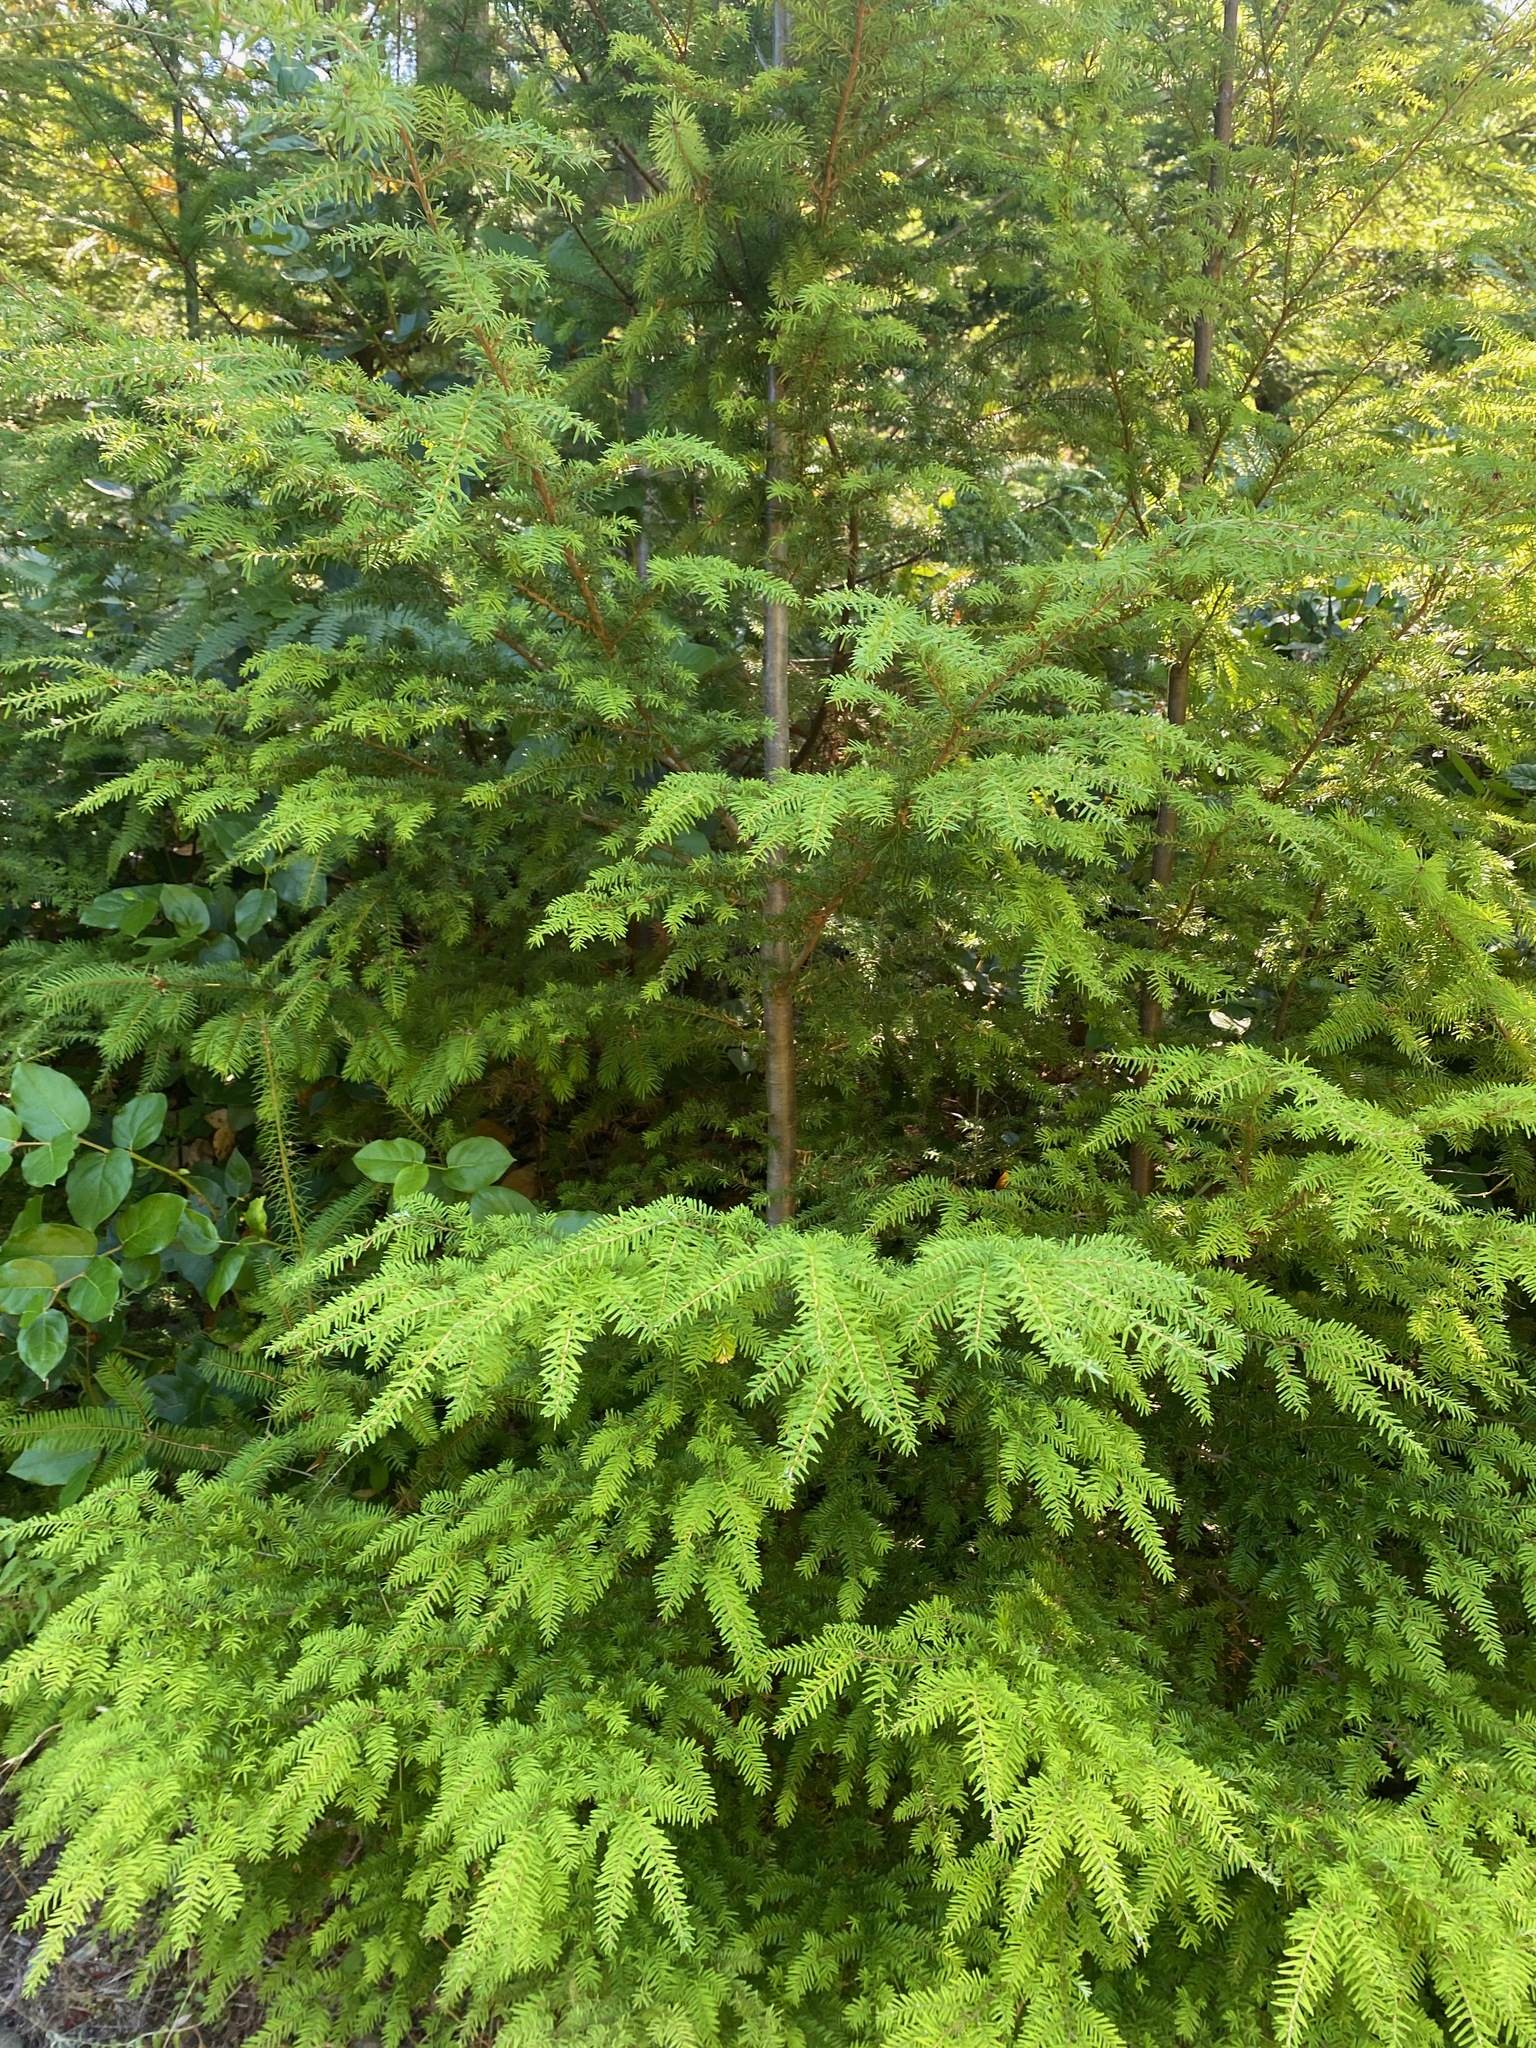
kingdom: Plantae
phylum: Tracheophyta
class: Pinopsida
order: Pinales
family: Pinaceae
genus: Tsuga
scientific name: Tsuga heterophylla
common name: Western hemlock
